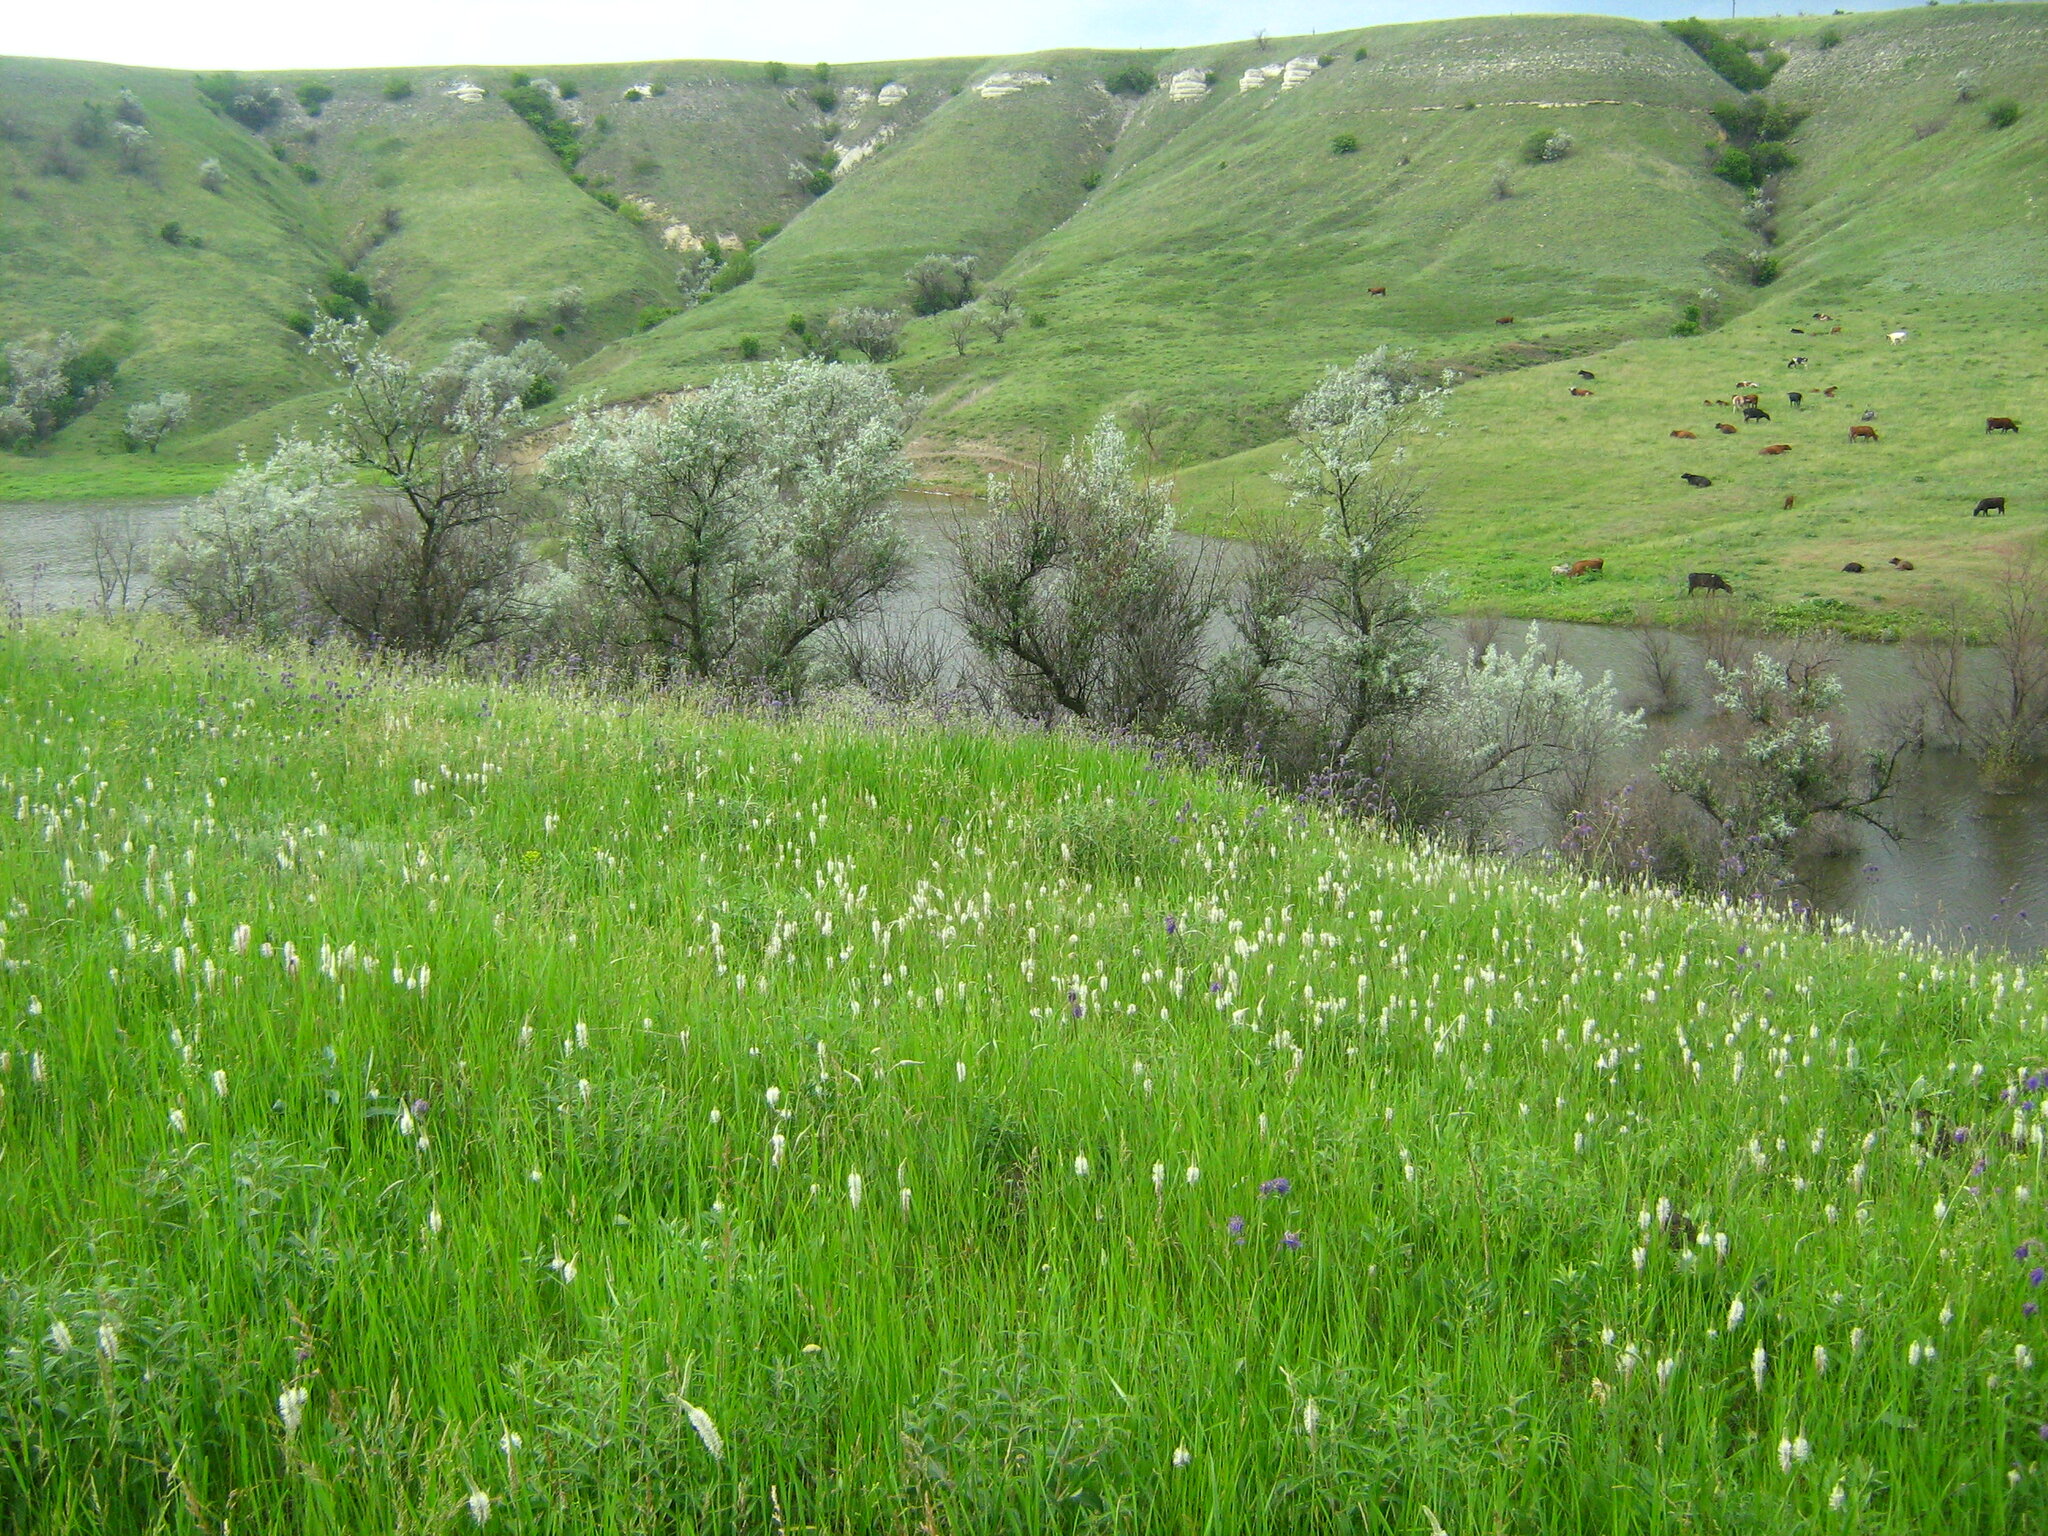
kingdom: Plantae
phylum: Tracheophyta
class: Magnoliopsida
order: Lamiales
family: Lamiaceae
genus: Salvia
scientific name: Salvia nutans
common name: Nodding sage
